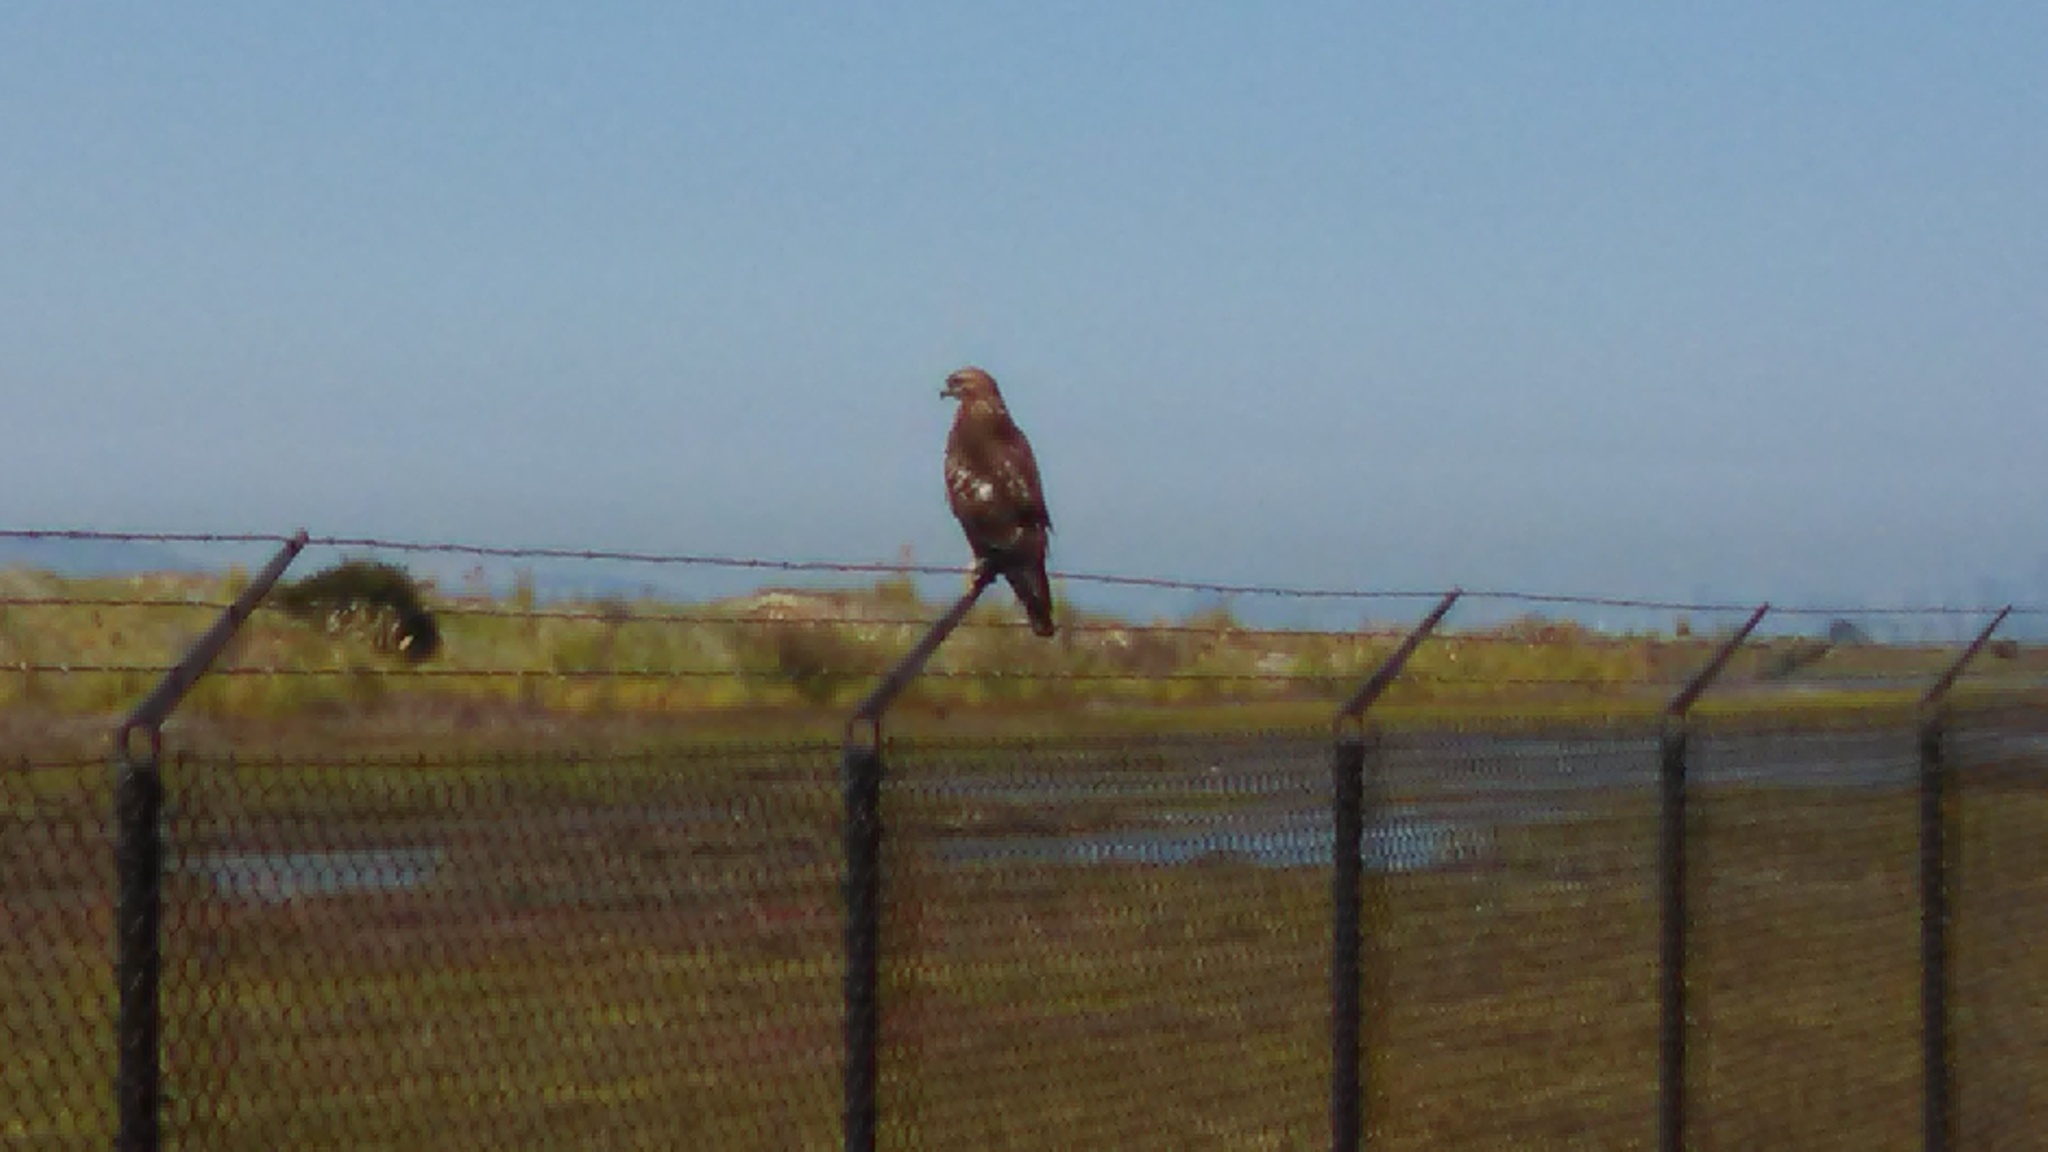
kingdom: Animalia
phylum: Chordata
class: Aves
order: Accipitriformes
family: Accipitridae
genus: Buteo
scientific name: Buteo jamaicensis
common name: Red-tailed hawk
